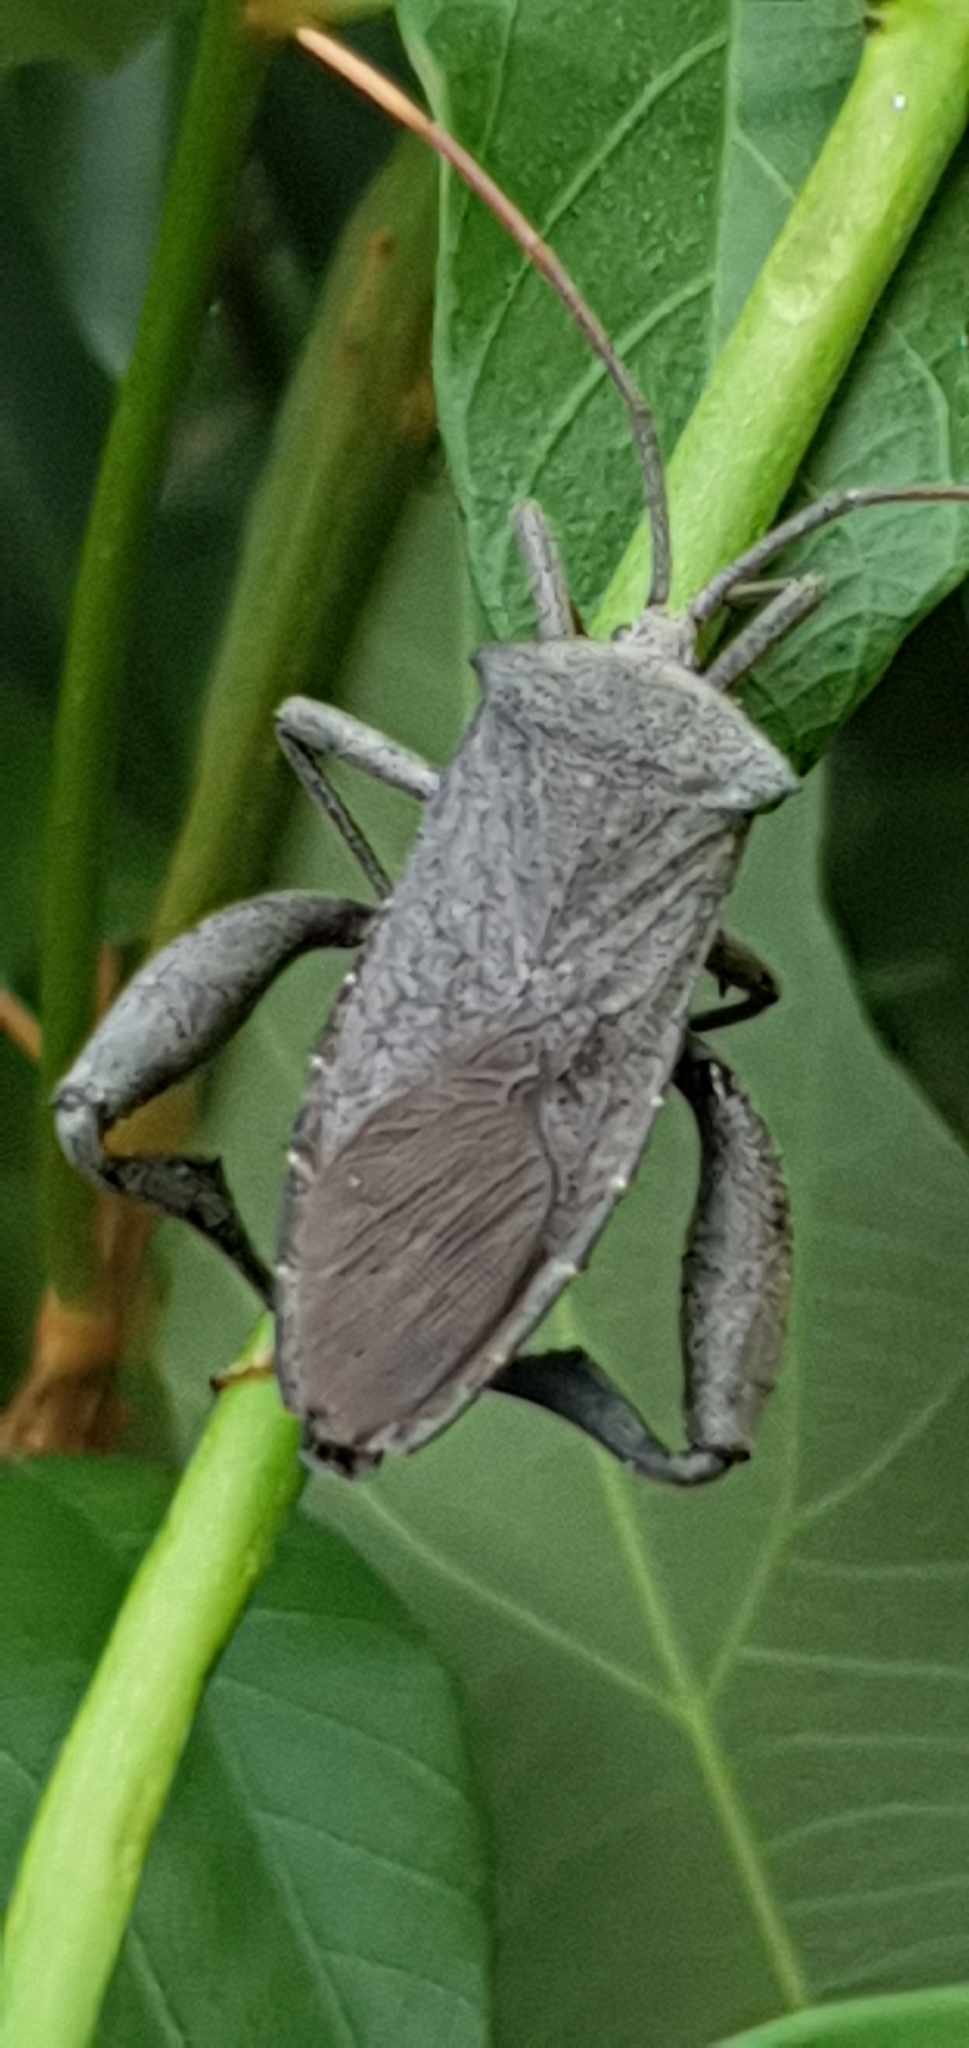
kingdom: Animalia
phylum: Arthropoda
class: Insecta
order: Hemiptera
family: Coreidae
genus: Mictis
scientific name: Mictis difficilis
